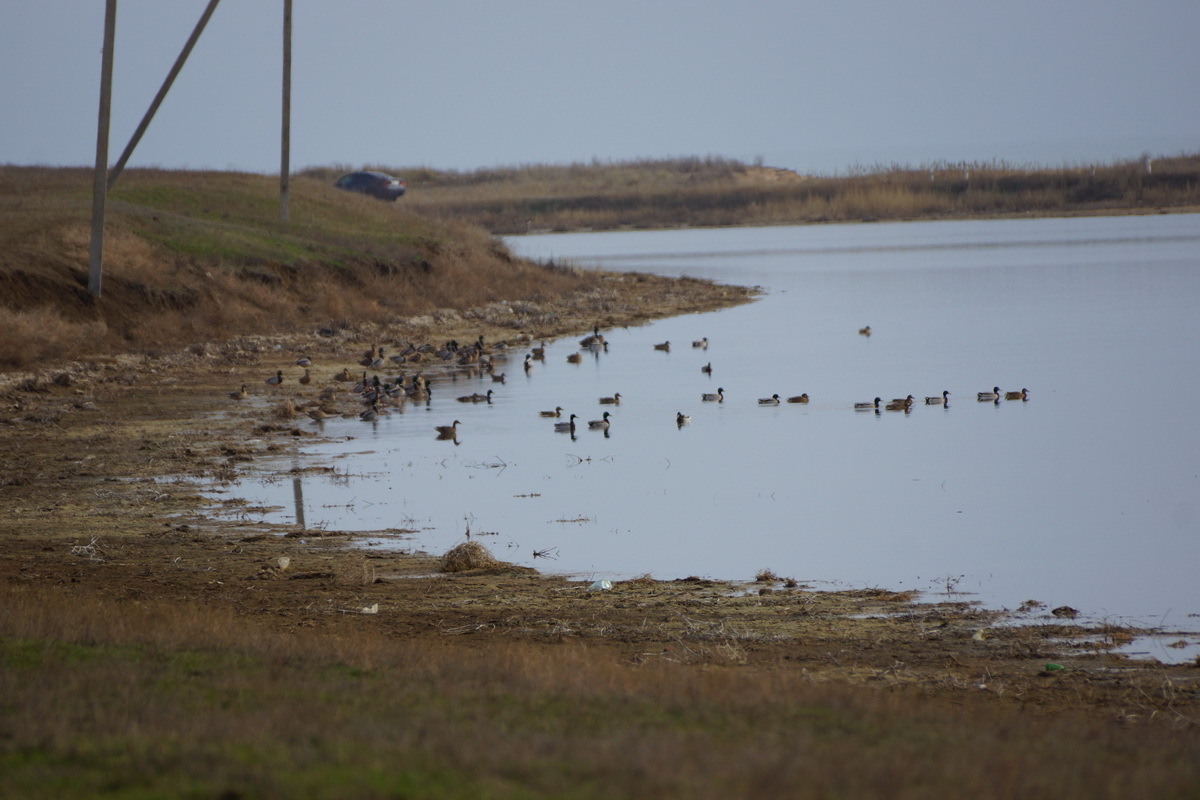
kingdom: Animalia
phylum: Chordata
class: Aves
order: Anseriformes
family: Anatidae
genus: Anas
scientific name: Anas platyrhynchos
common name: Mallard
